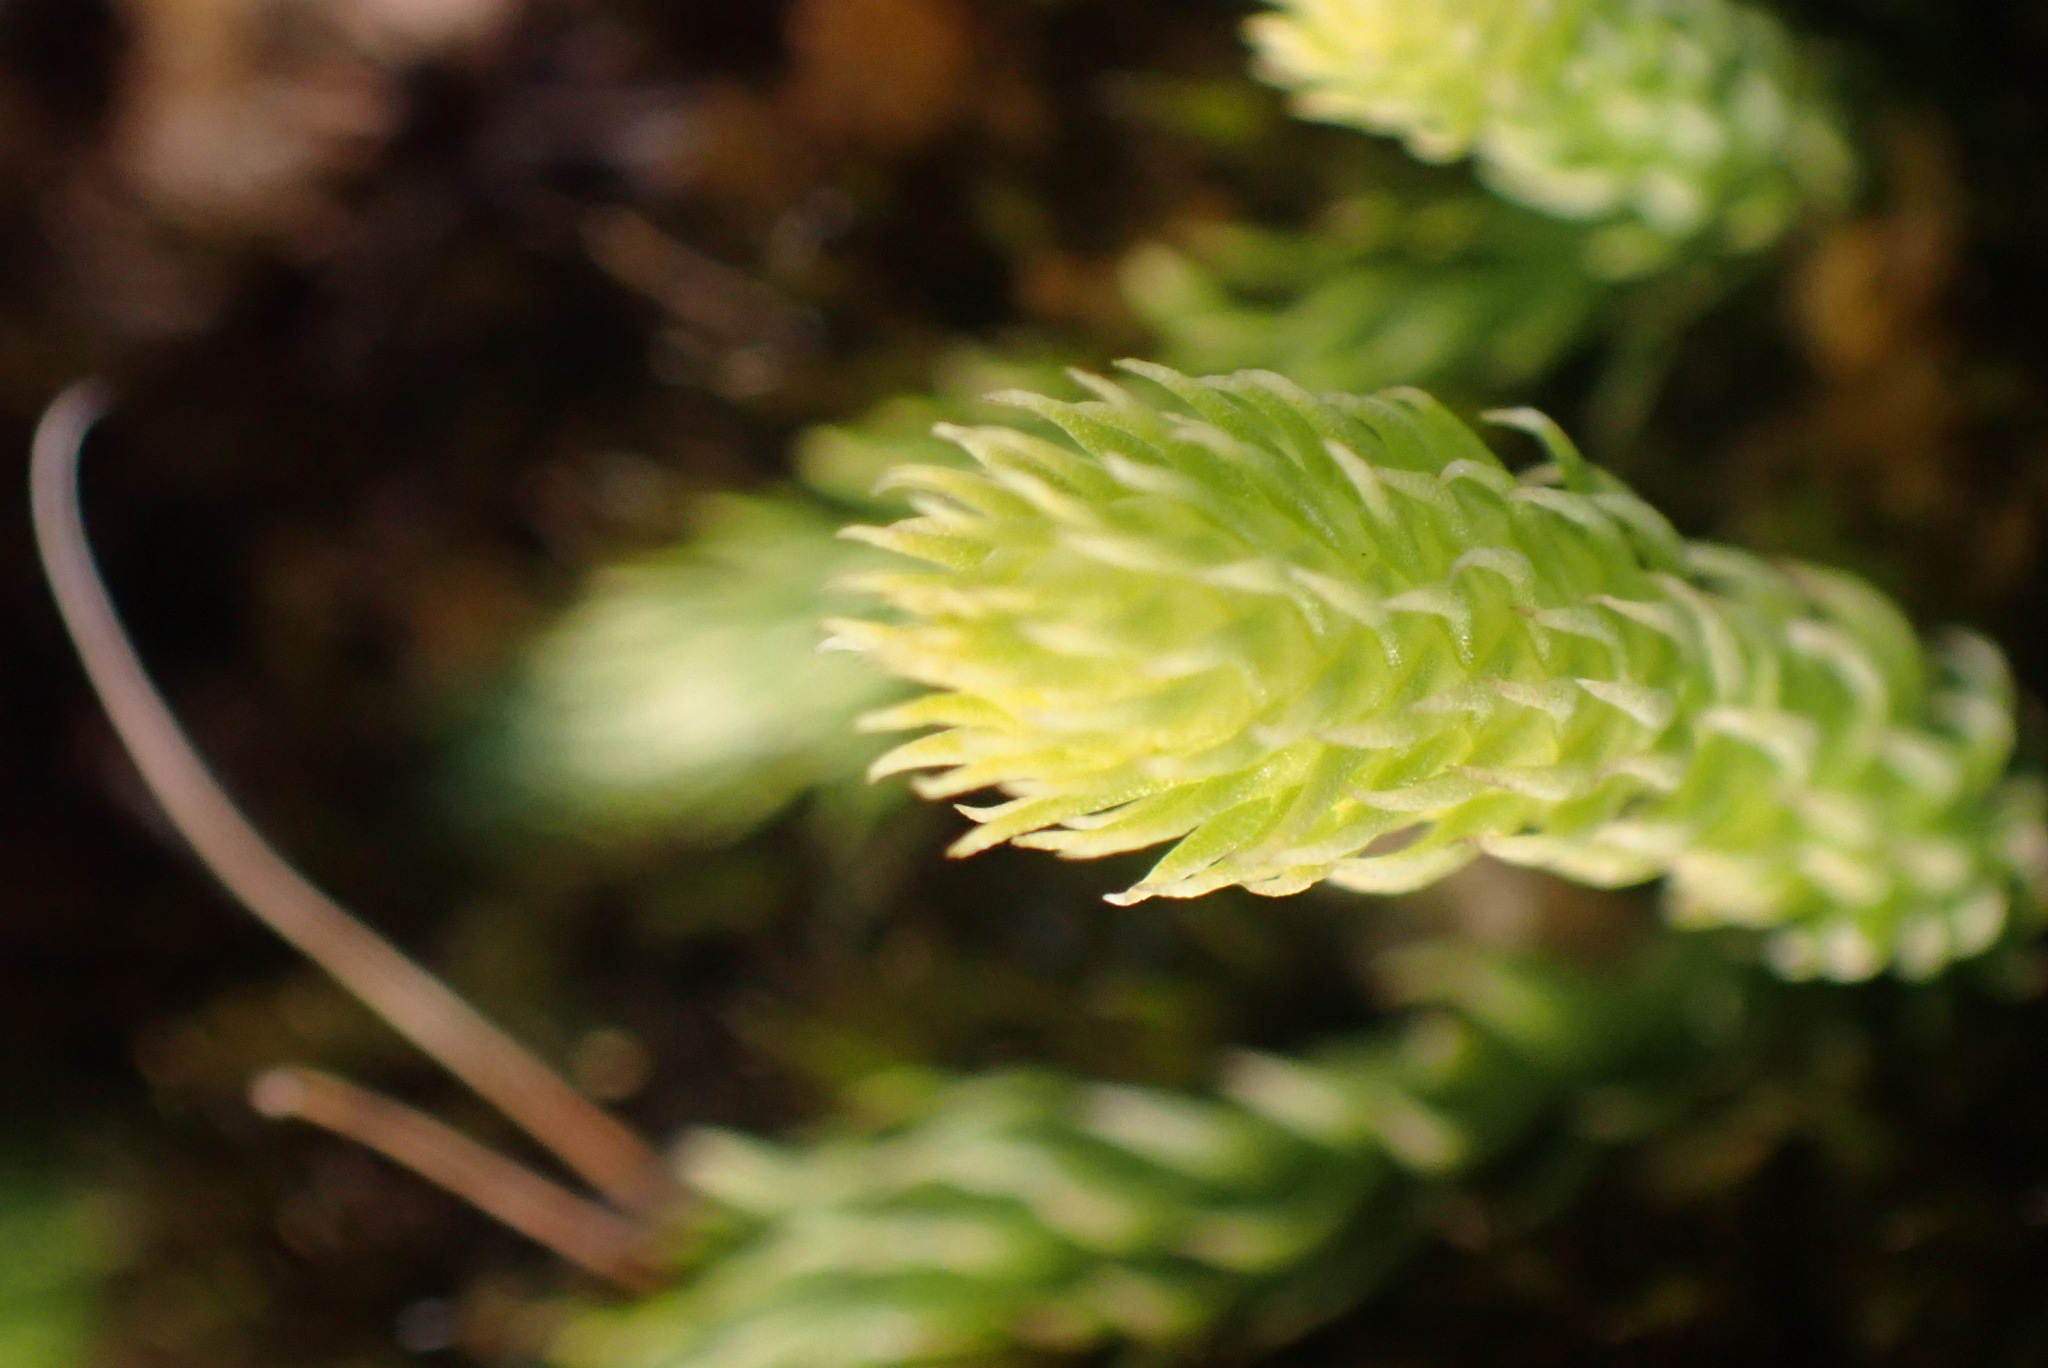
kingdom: Plantae
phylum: Tracheophyta
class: Lycopodiopsida
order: Lycopodiales
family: Lycopodiaceae
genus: Lycopodiella
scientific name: Lycopodiella inundata
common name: Marsh clubmoss
